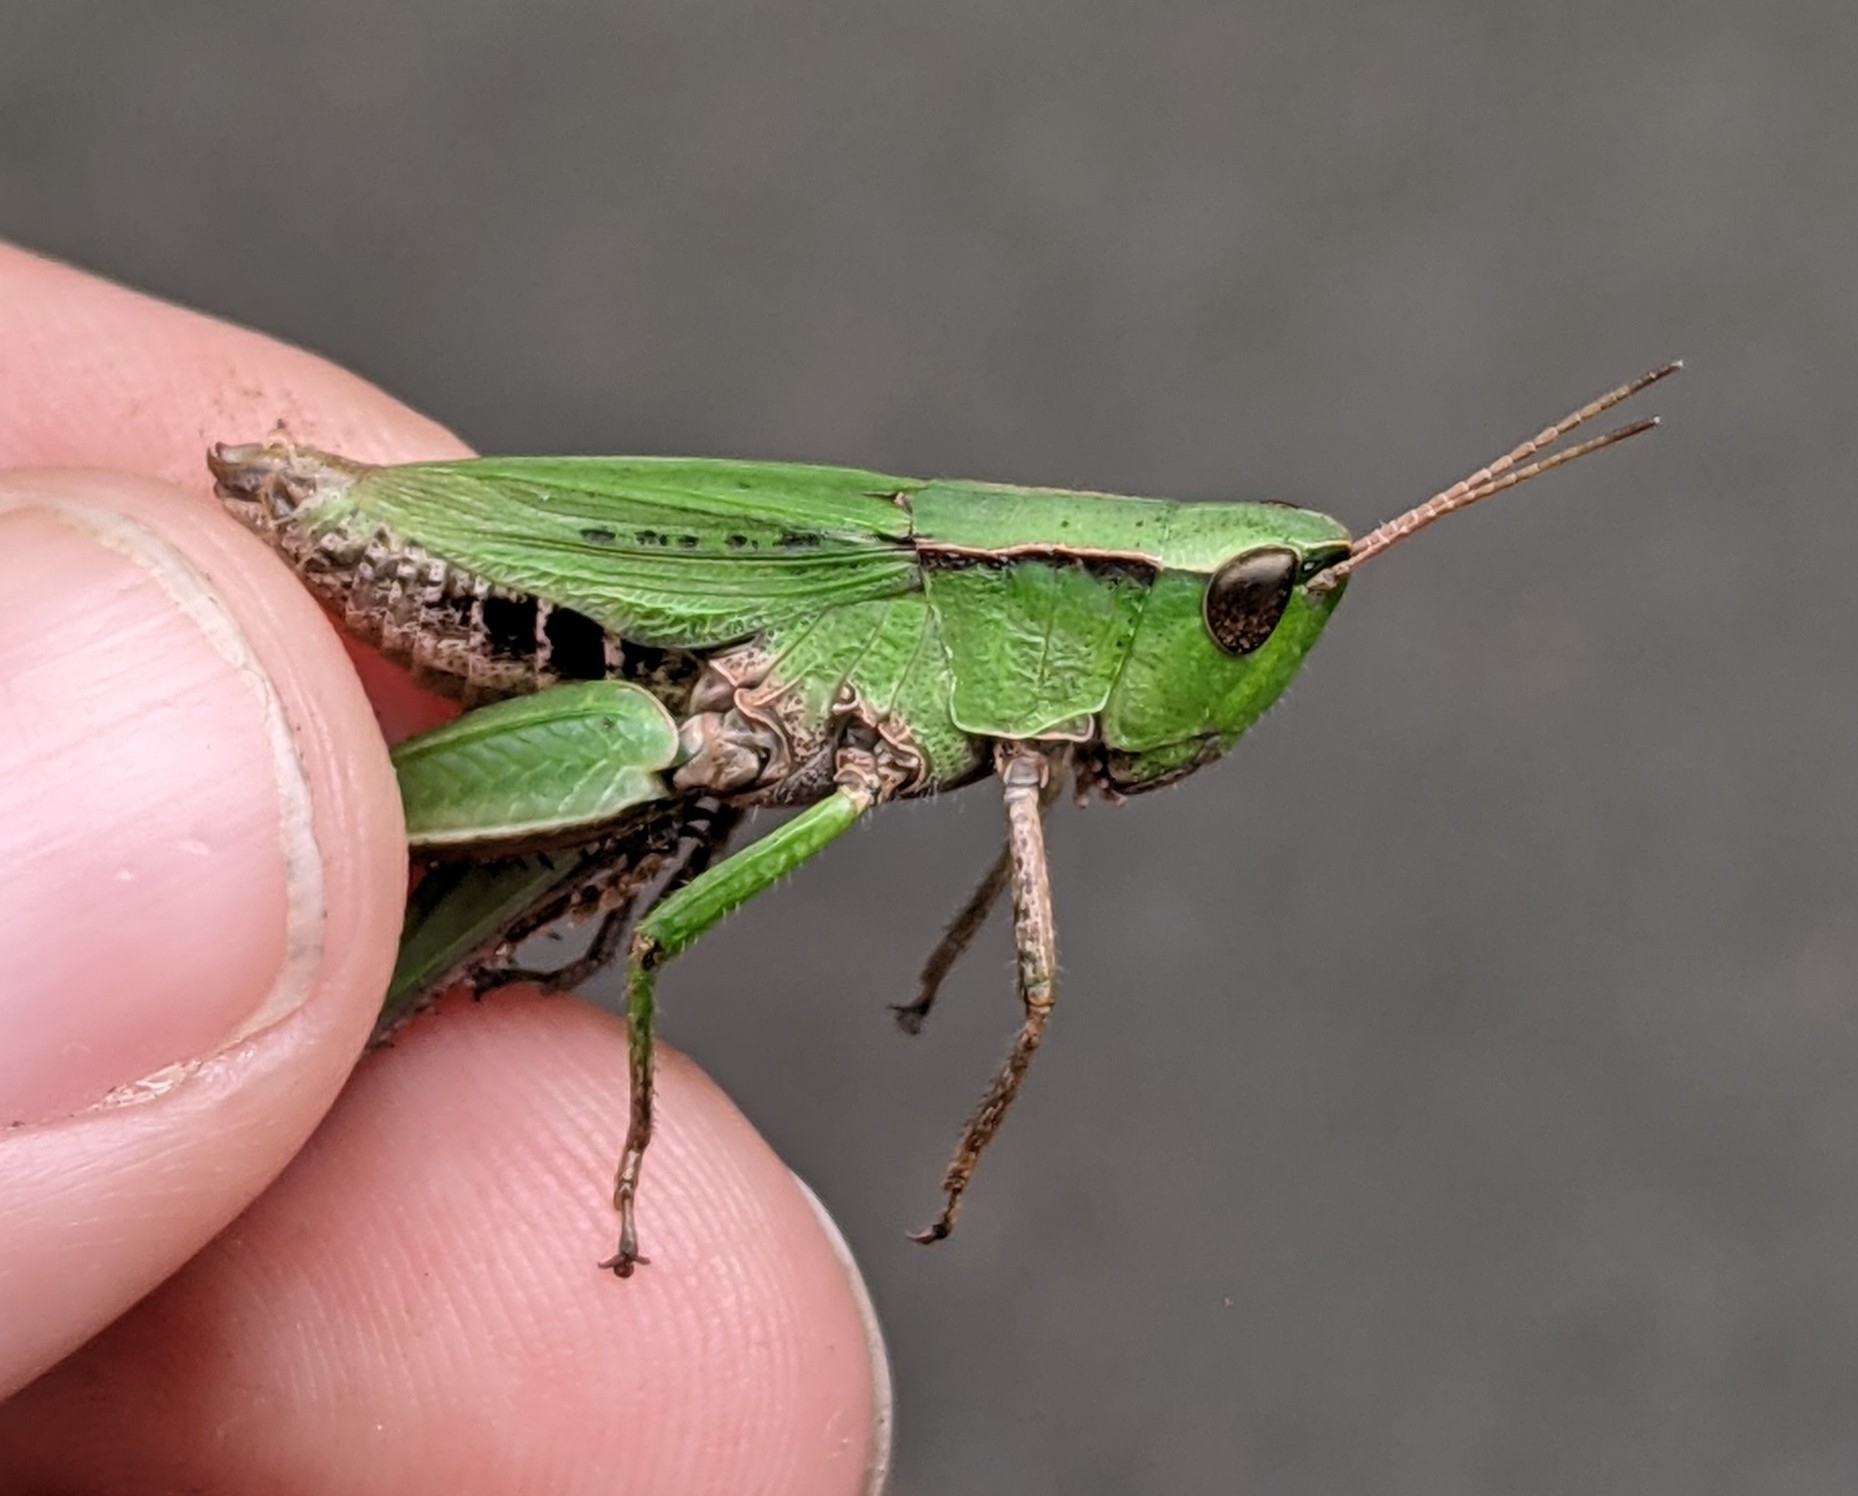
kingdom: Animalia
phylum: Arthropoda
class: Insecta
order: Orthoptera
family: Acrididae
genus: Dichromorpha
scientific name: Dichromorpha viridis
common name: Short-winged green grasshopper
